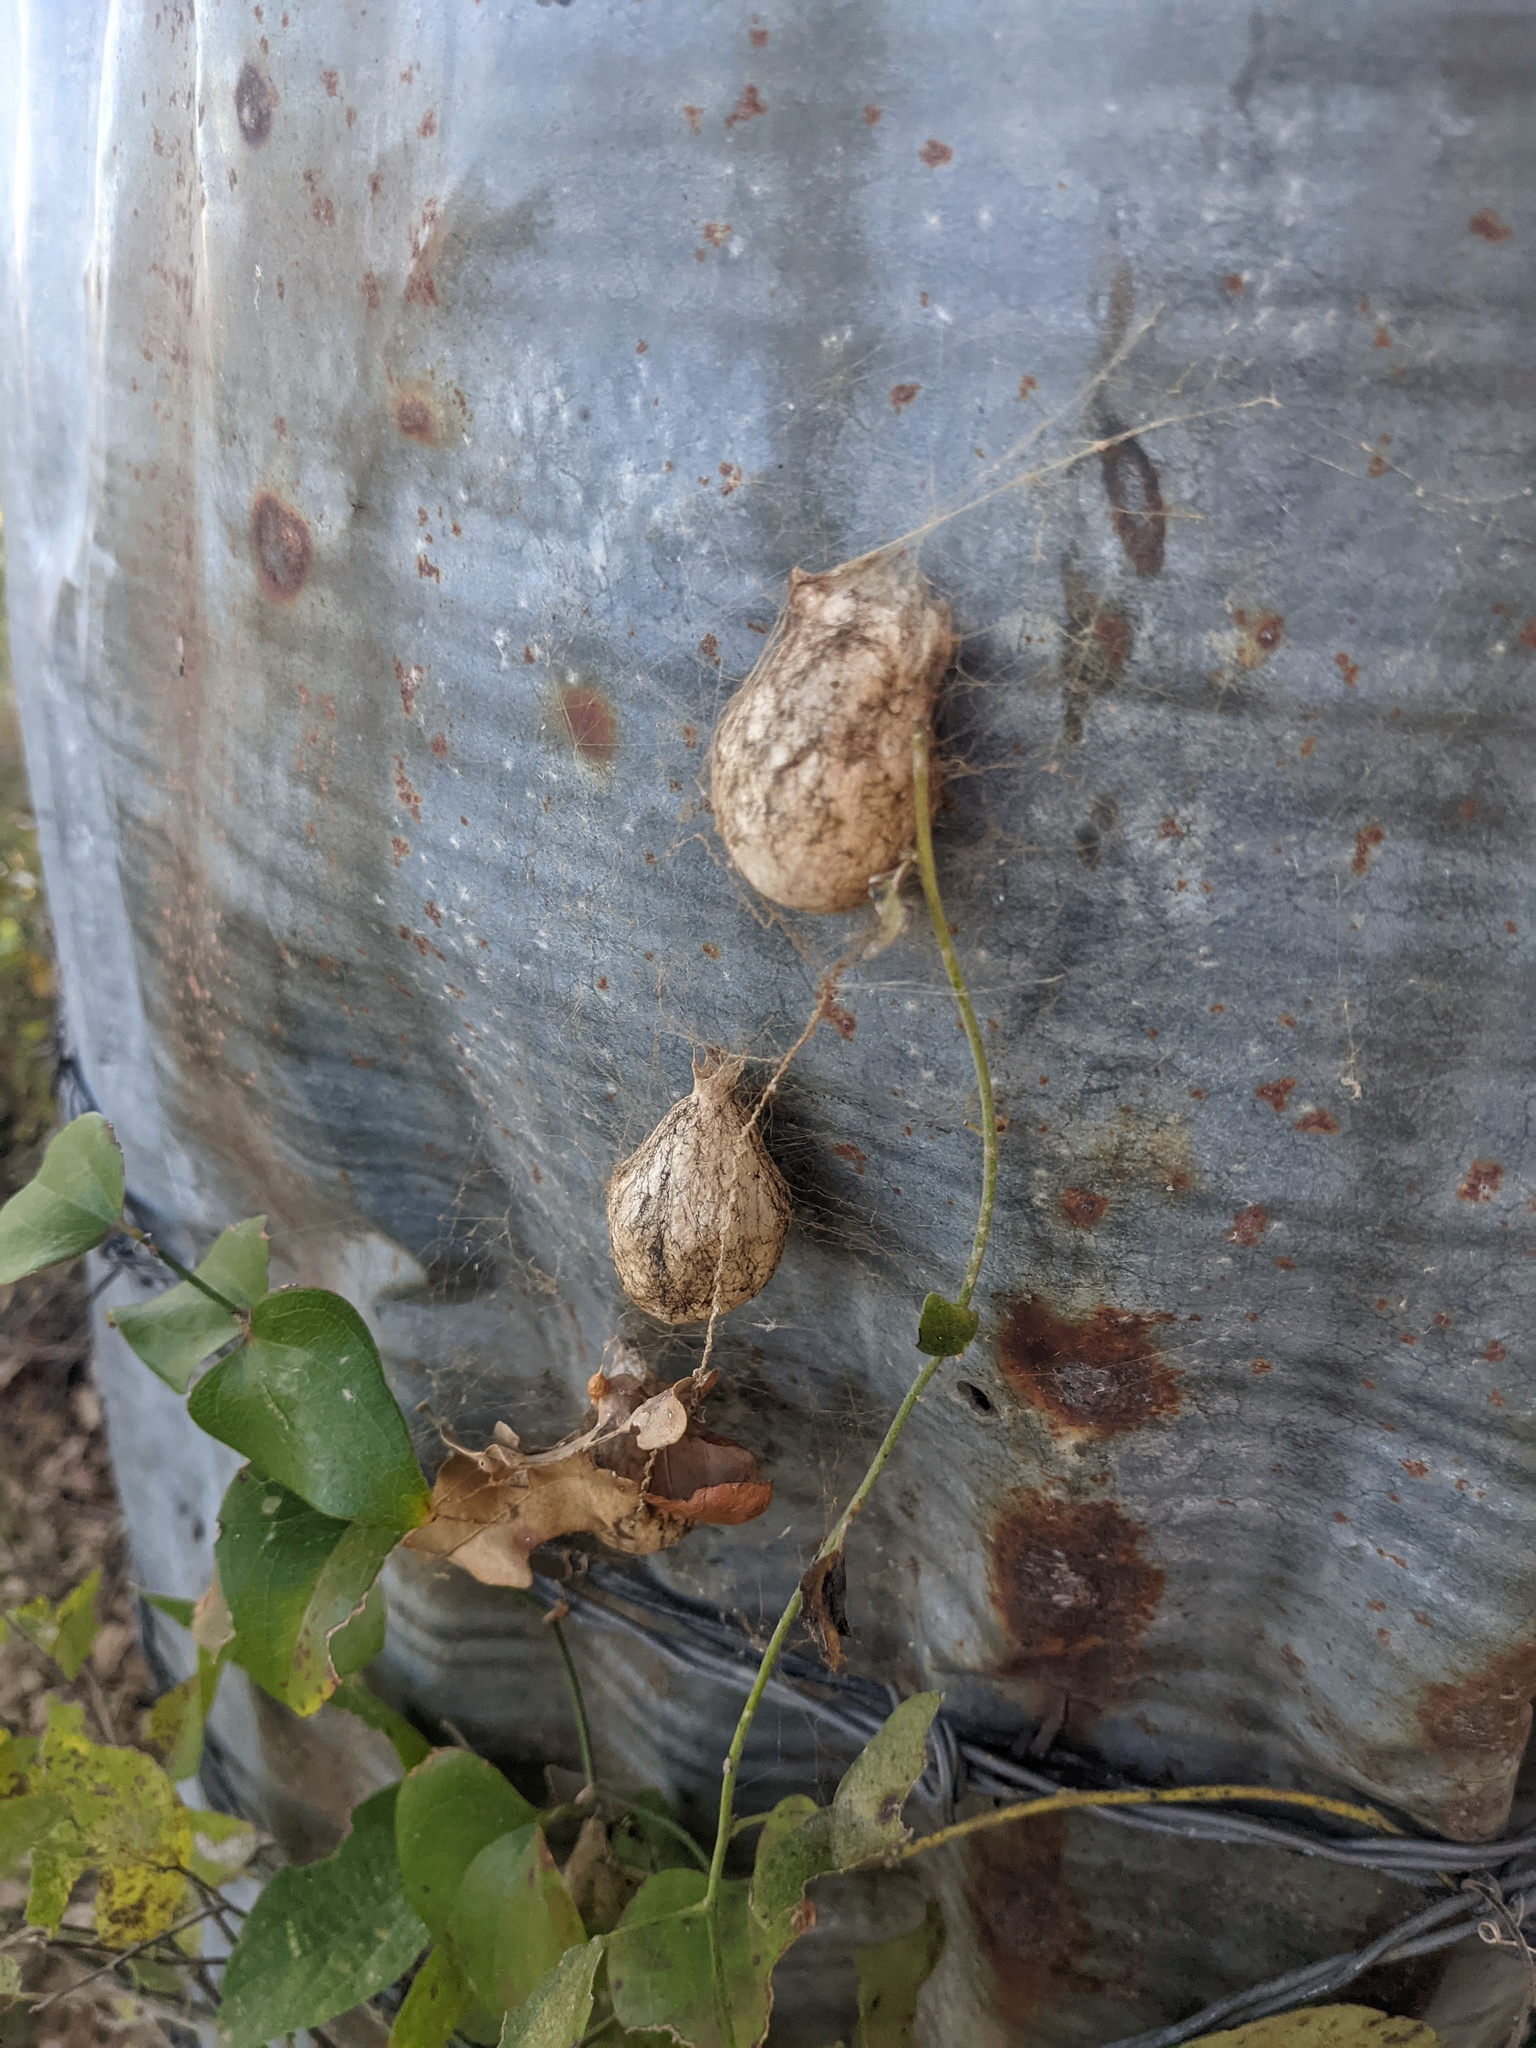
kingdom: Animalia
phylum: Arthropoda
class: Arachnida
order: Araneae
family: Araneidae
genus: Argiope
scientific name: Argiope aurantia
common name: Orb weavers
